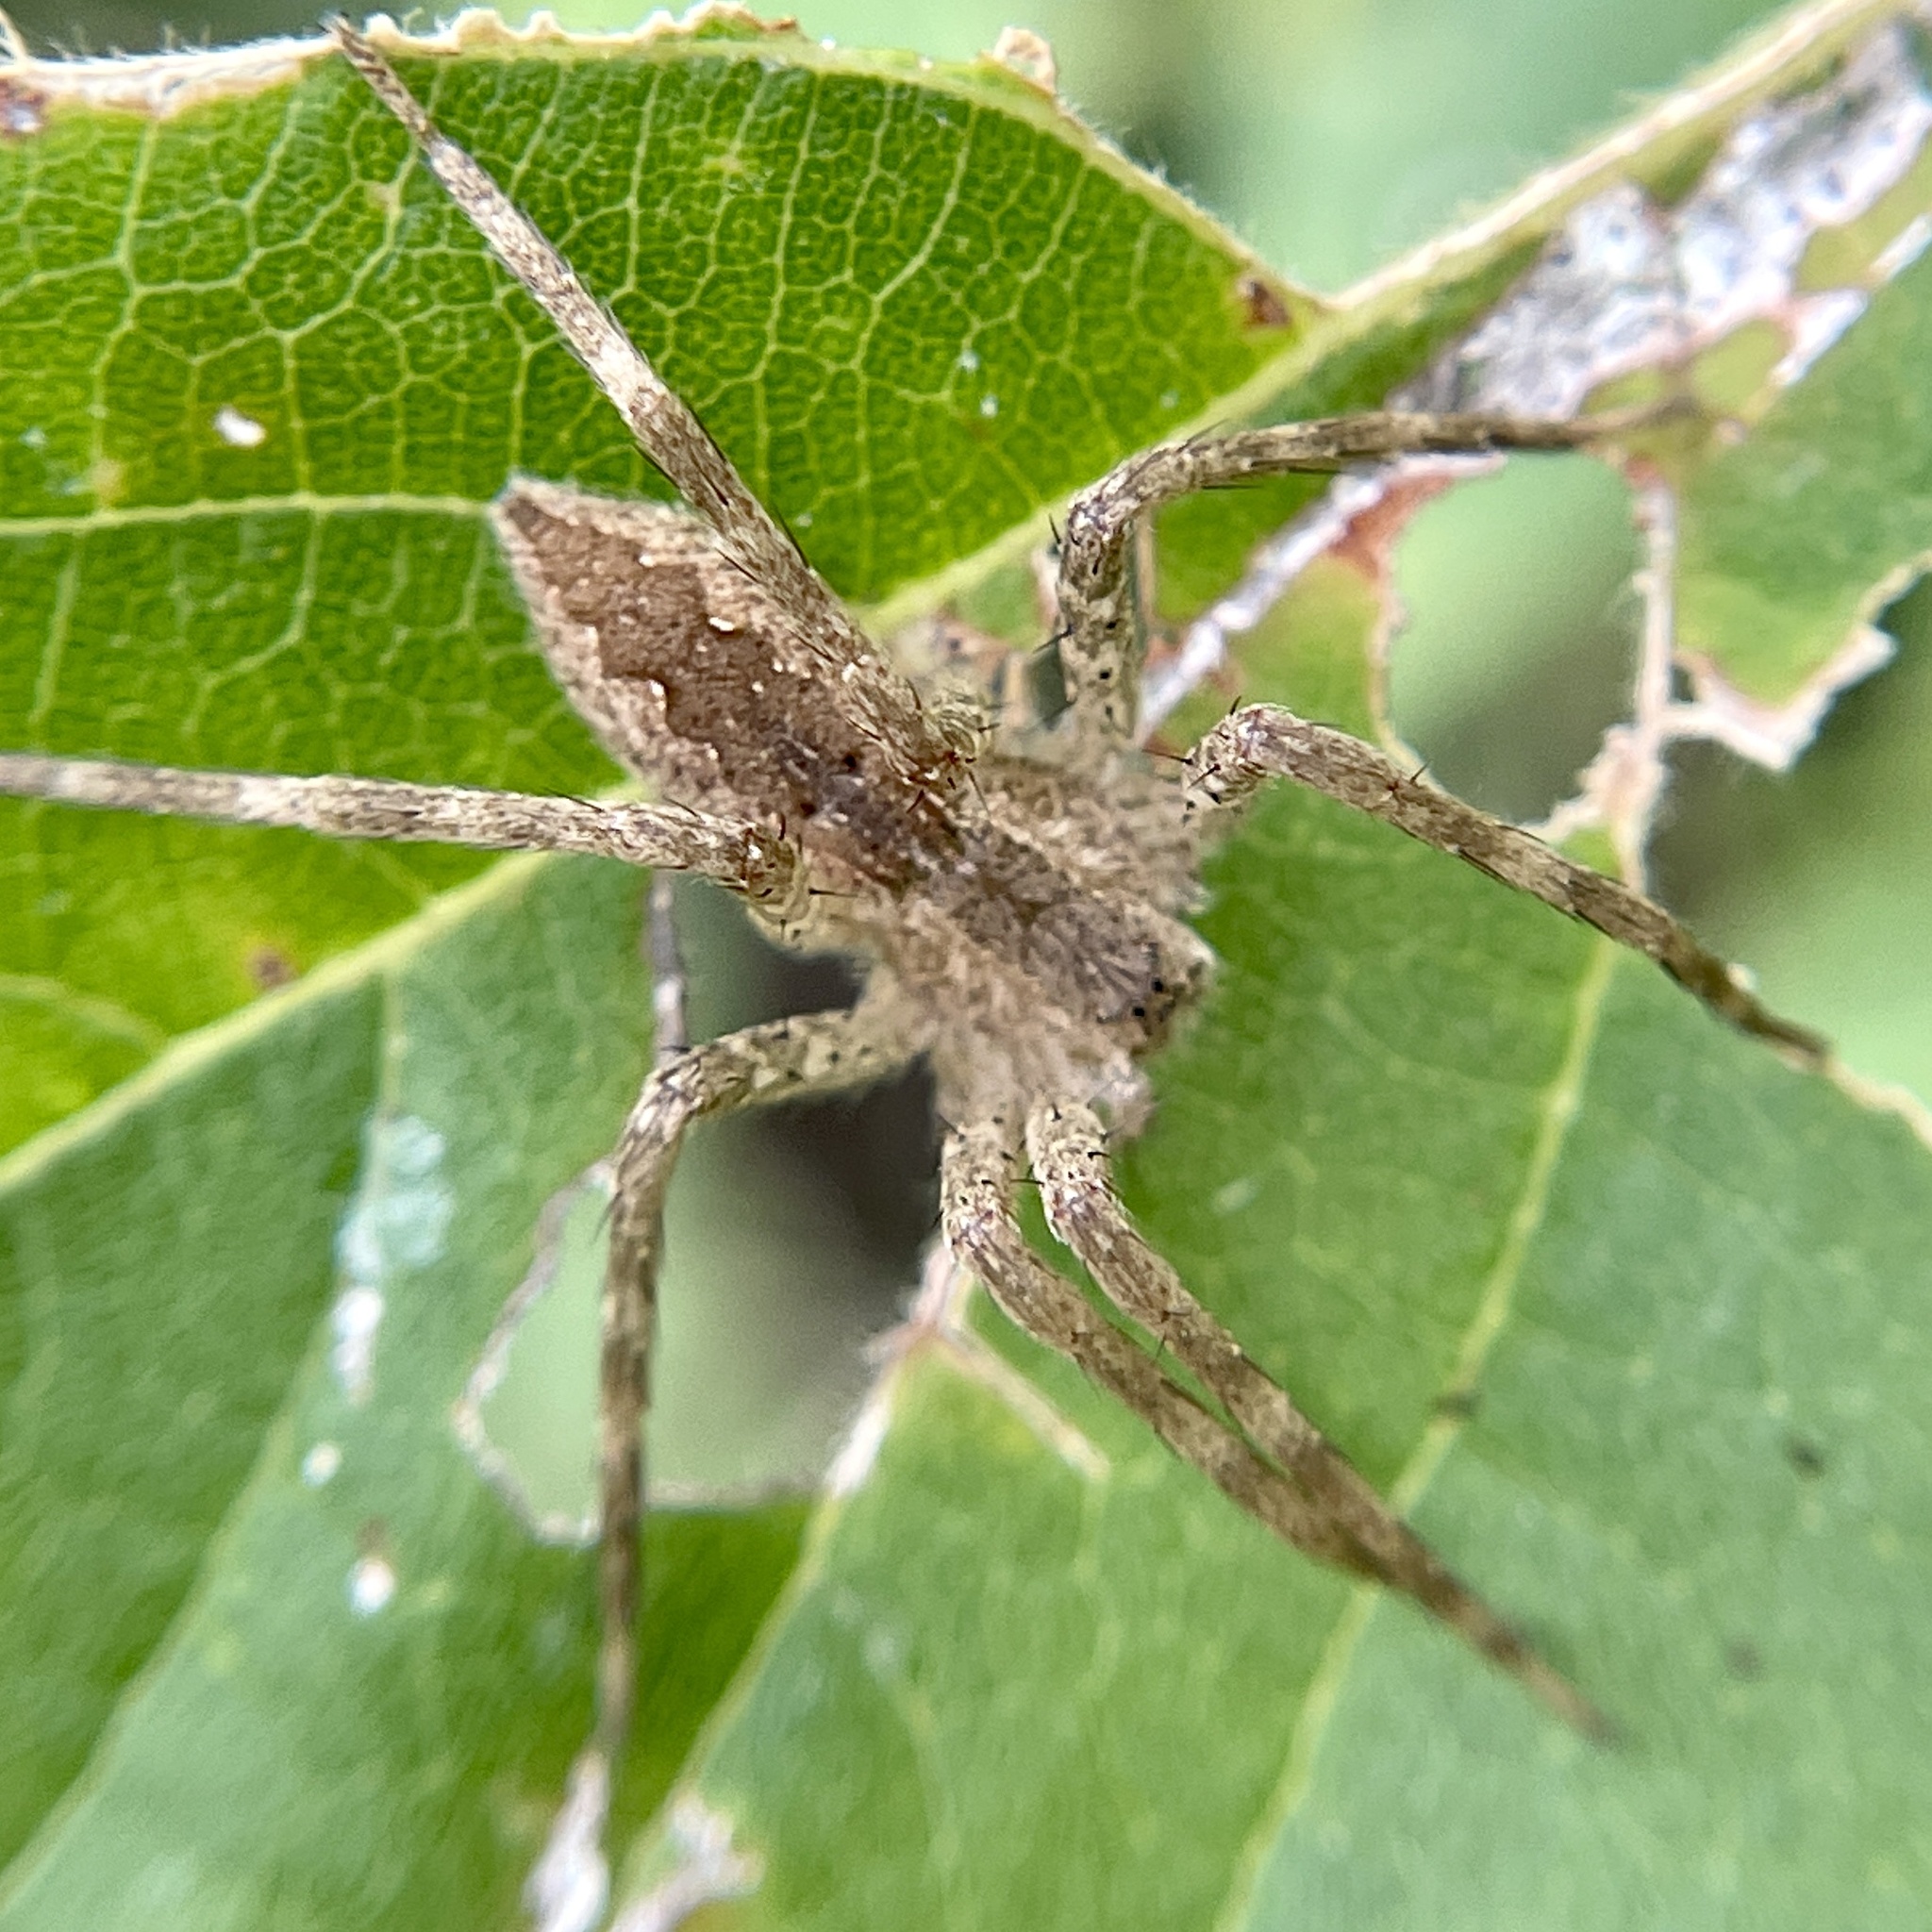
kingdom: Animalia
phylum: Arthropoda
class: Arachnida
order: Araneae
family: Pisauridae
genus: Pisaurina
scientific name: Pisaurina mira
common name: American nursery web spider
